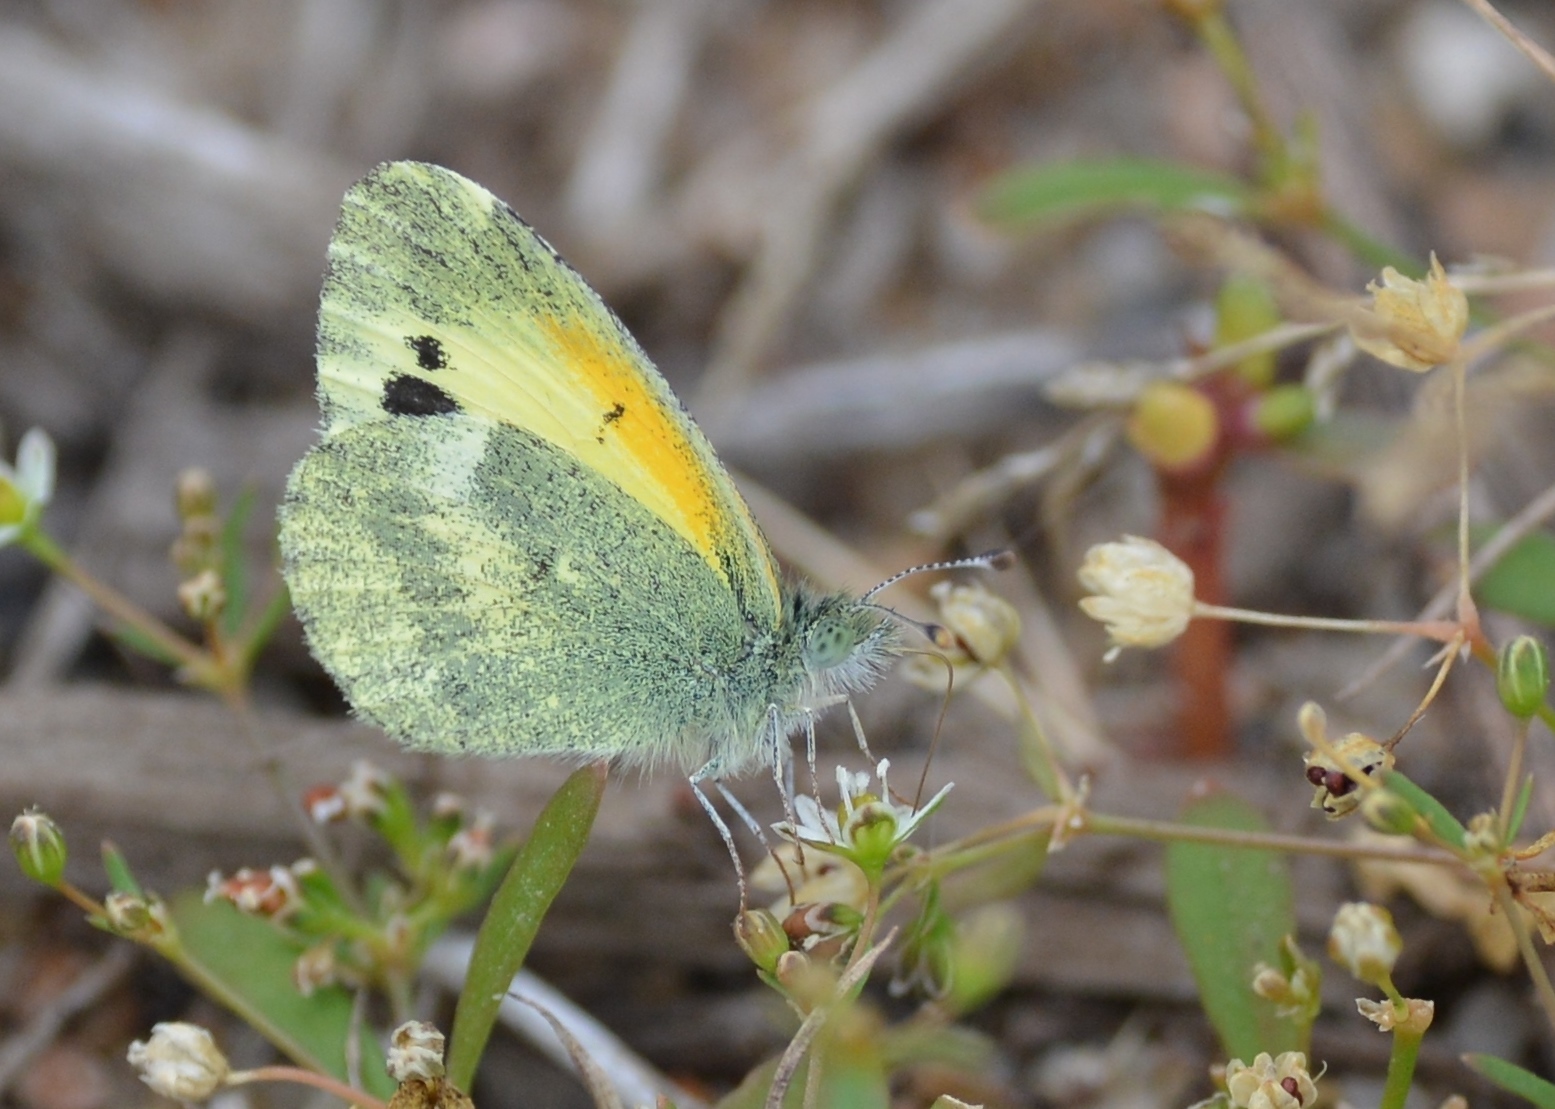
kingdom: Animalia
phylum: Arthropoda
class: Insecta
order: Lepidoptera
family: Pieridae
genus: Nathalis
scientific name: Nathalis iole
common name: Dainty sulphur
